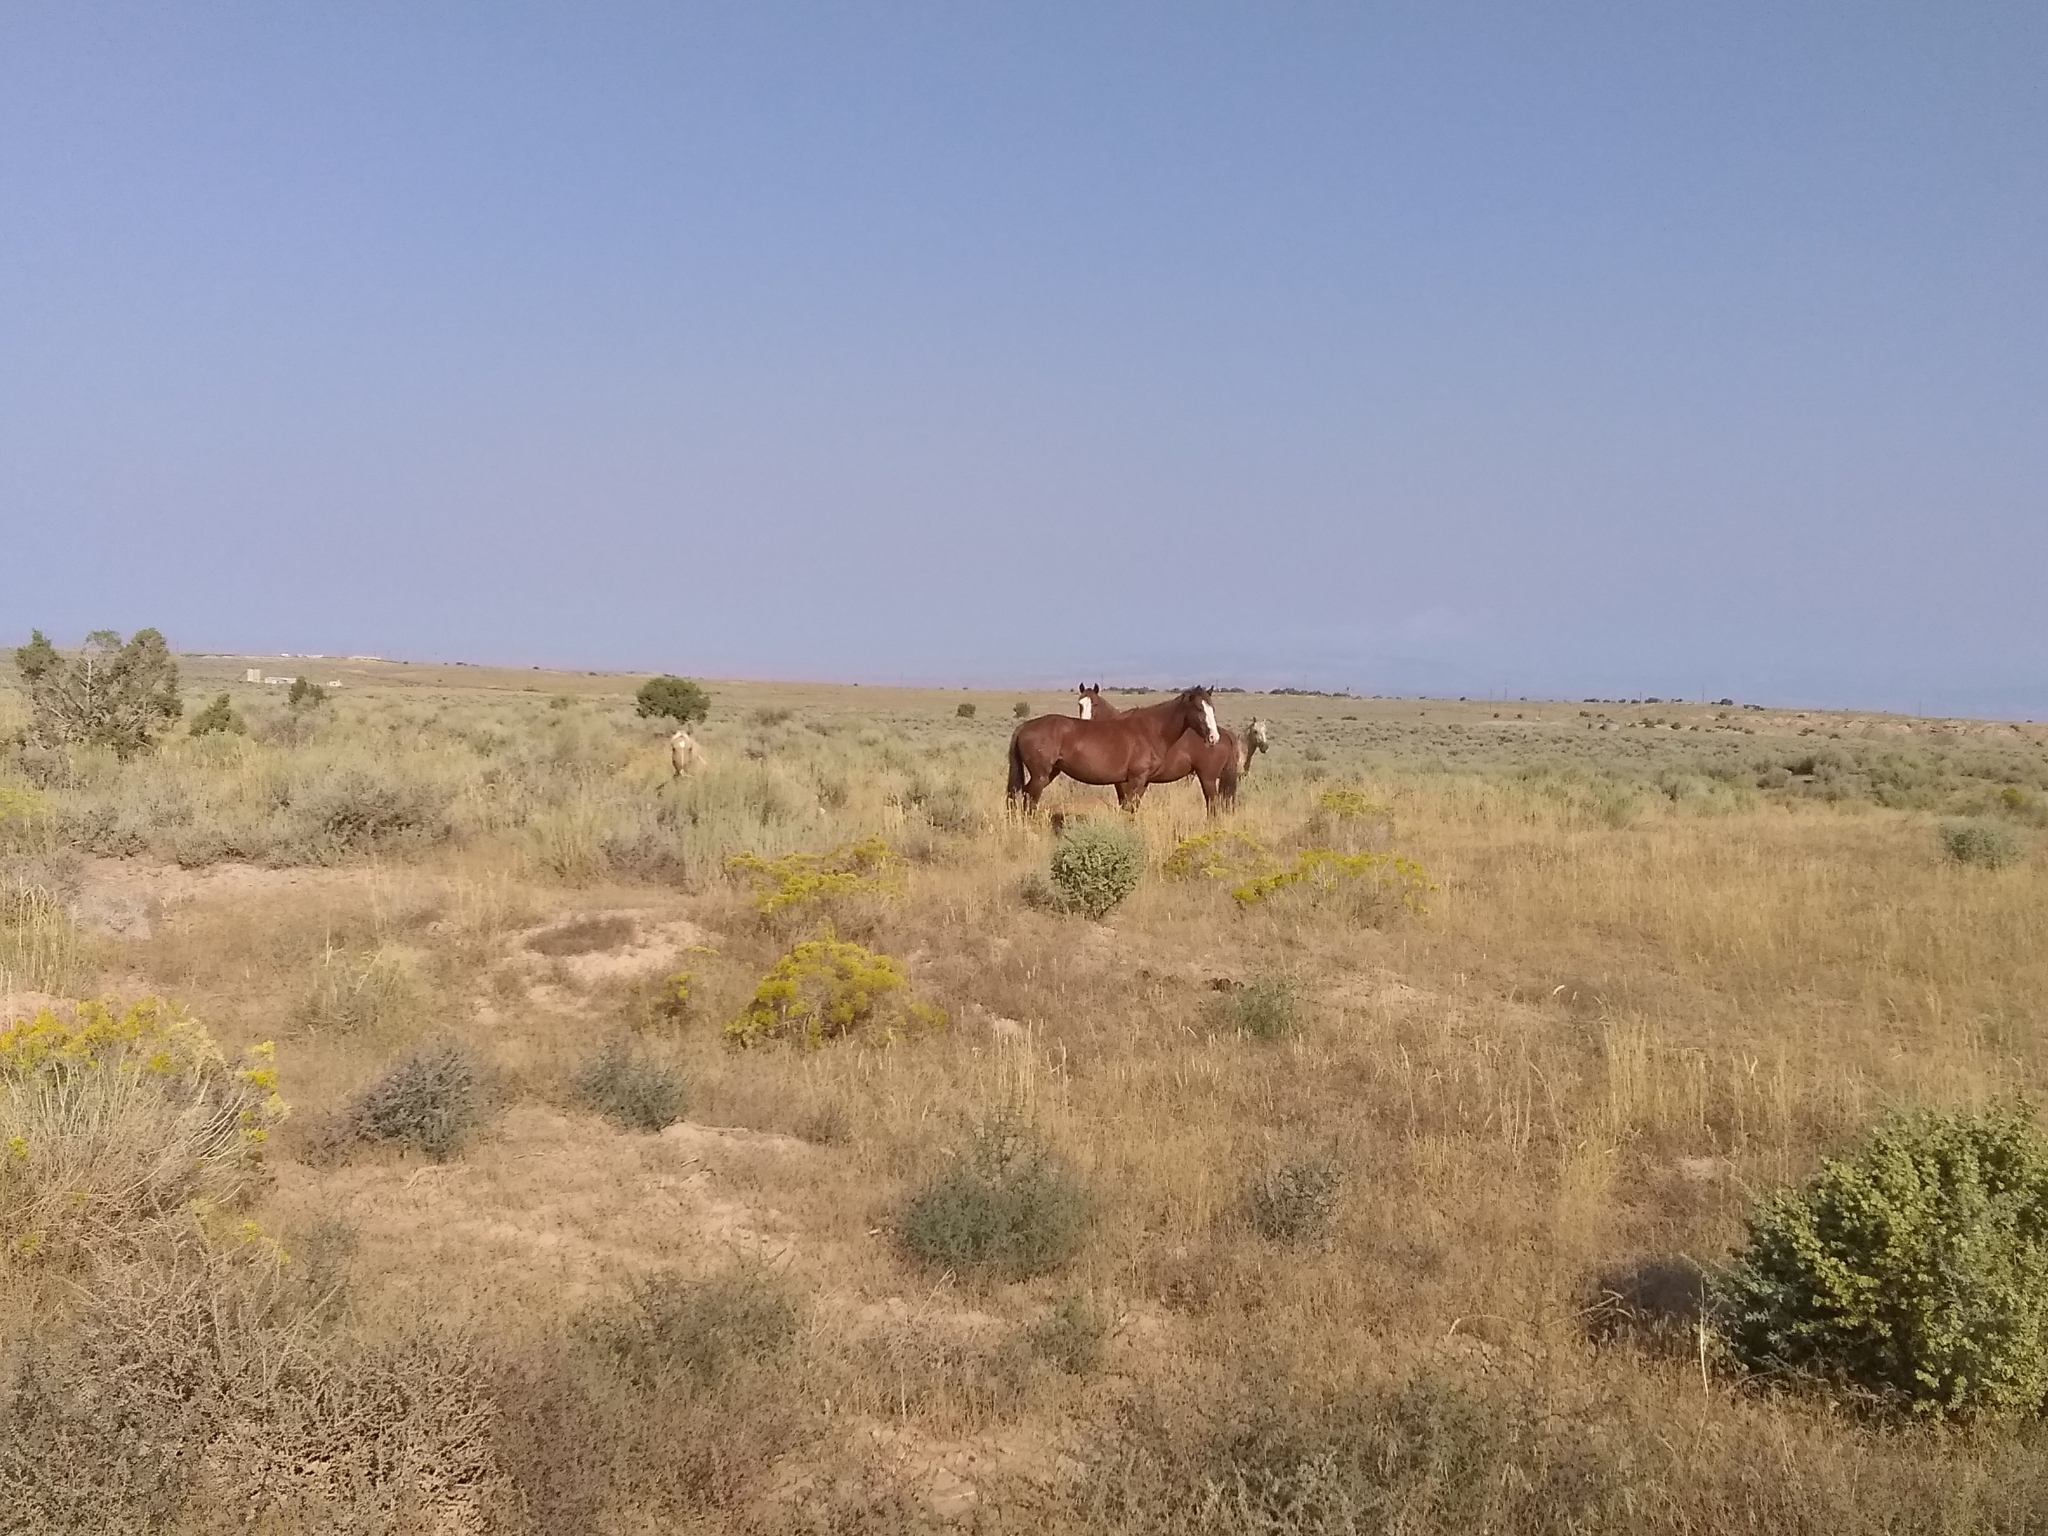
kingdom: Animalia
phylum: Chordata
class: Mammalia
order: Perissodactyla
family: Equidae
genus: Equus
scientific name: Equus caballus
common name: Horse
